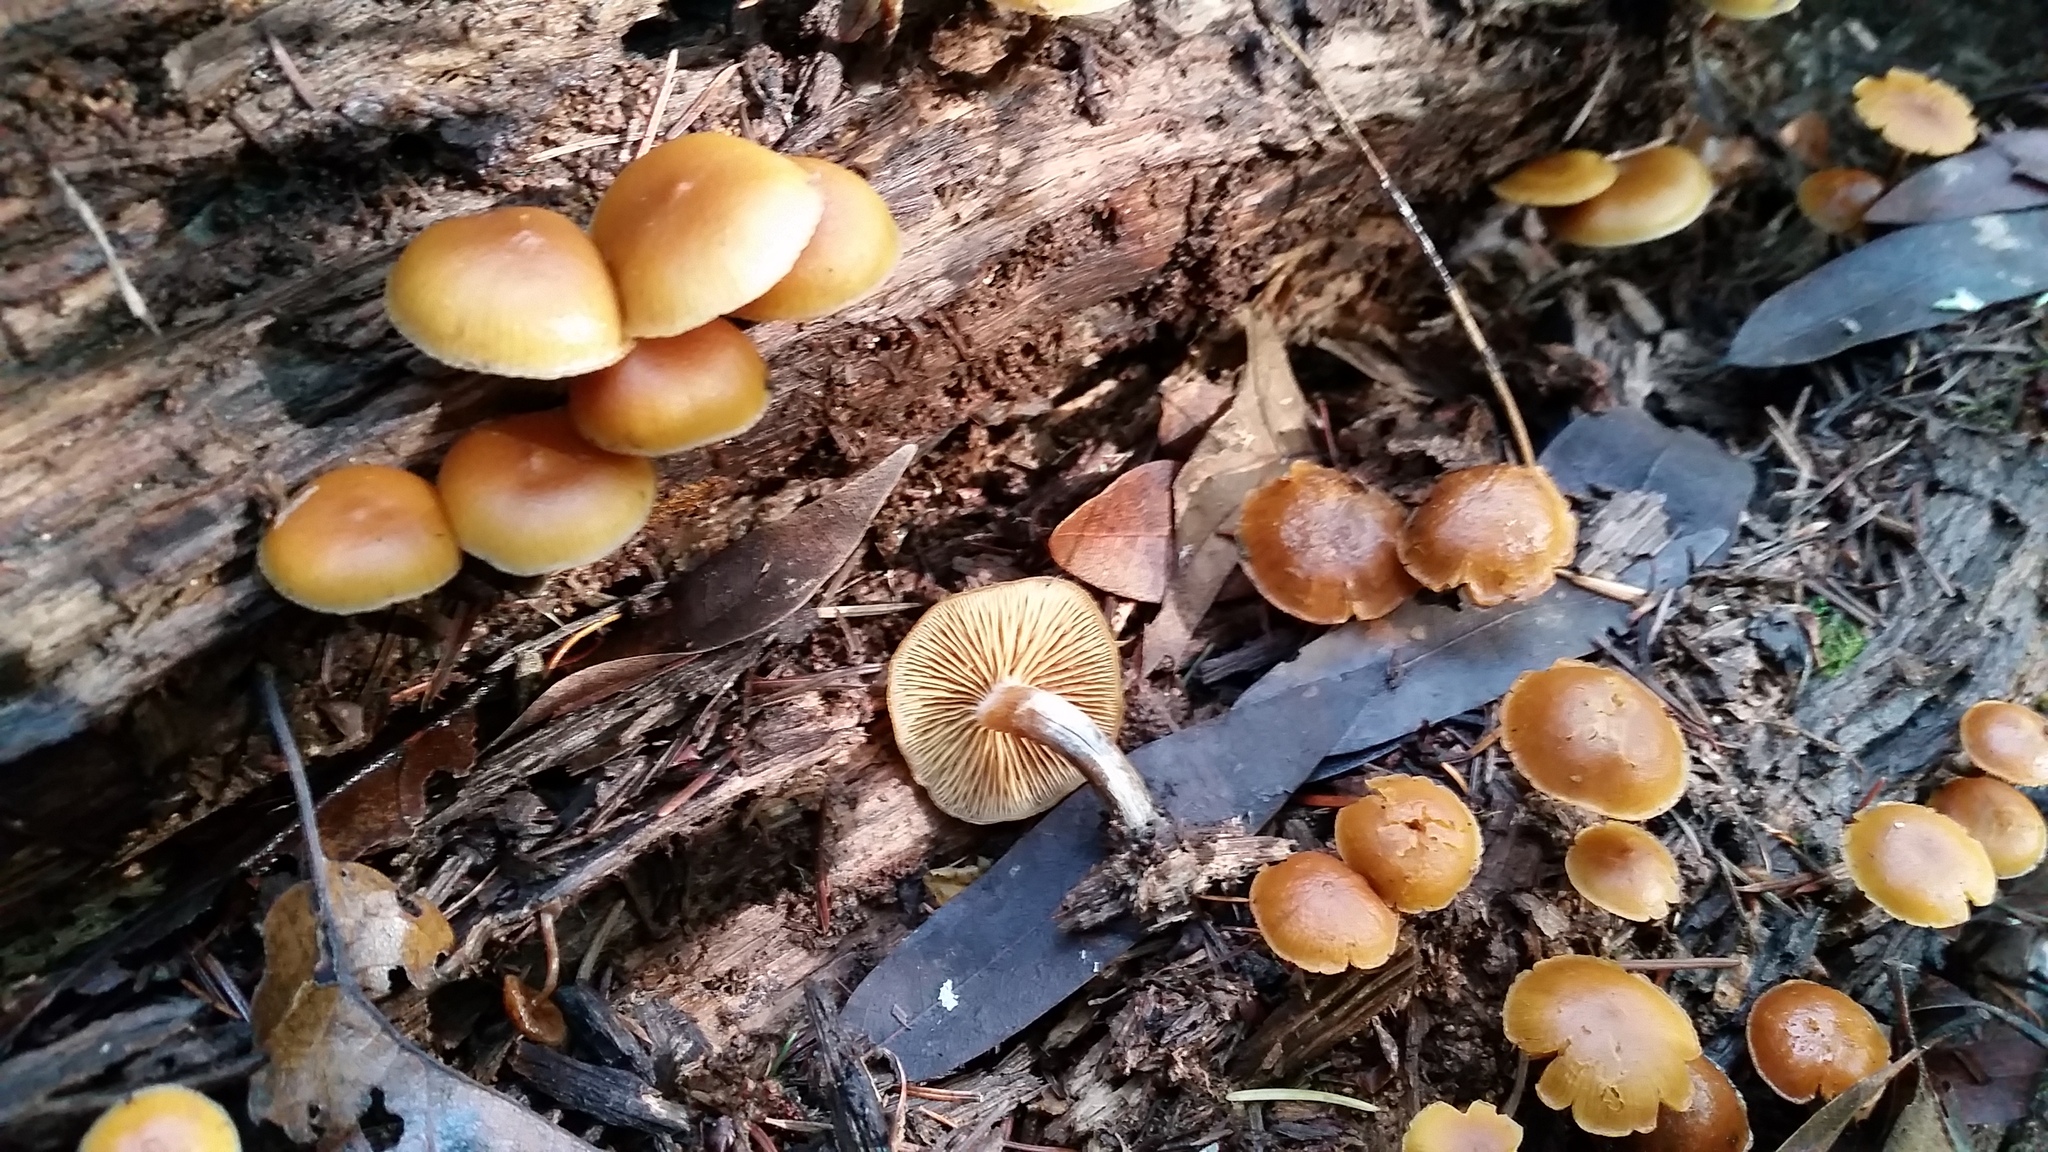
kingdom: Fungi
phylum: Basidiomycota
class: Agaricomycetes
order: Agaricales
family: Hymenogastraceae
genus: Galerina
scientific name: Galerina marginata
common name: Funeral bell
